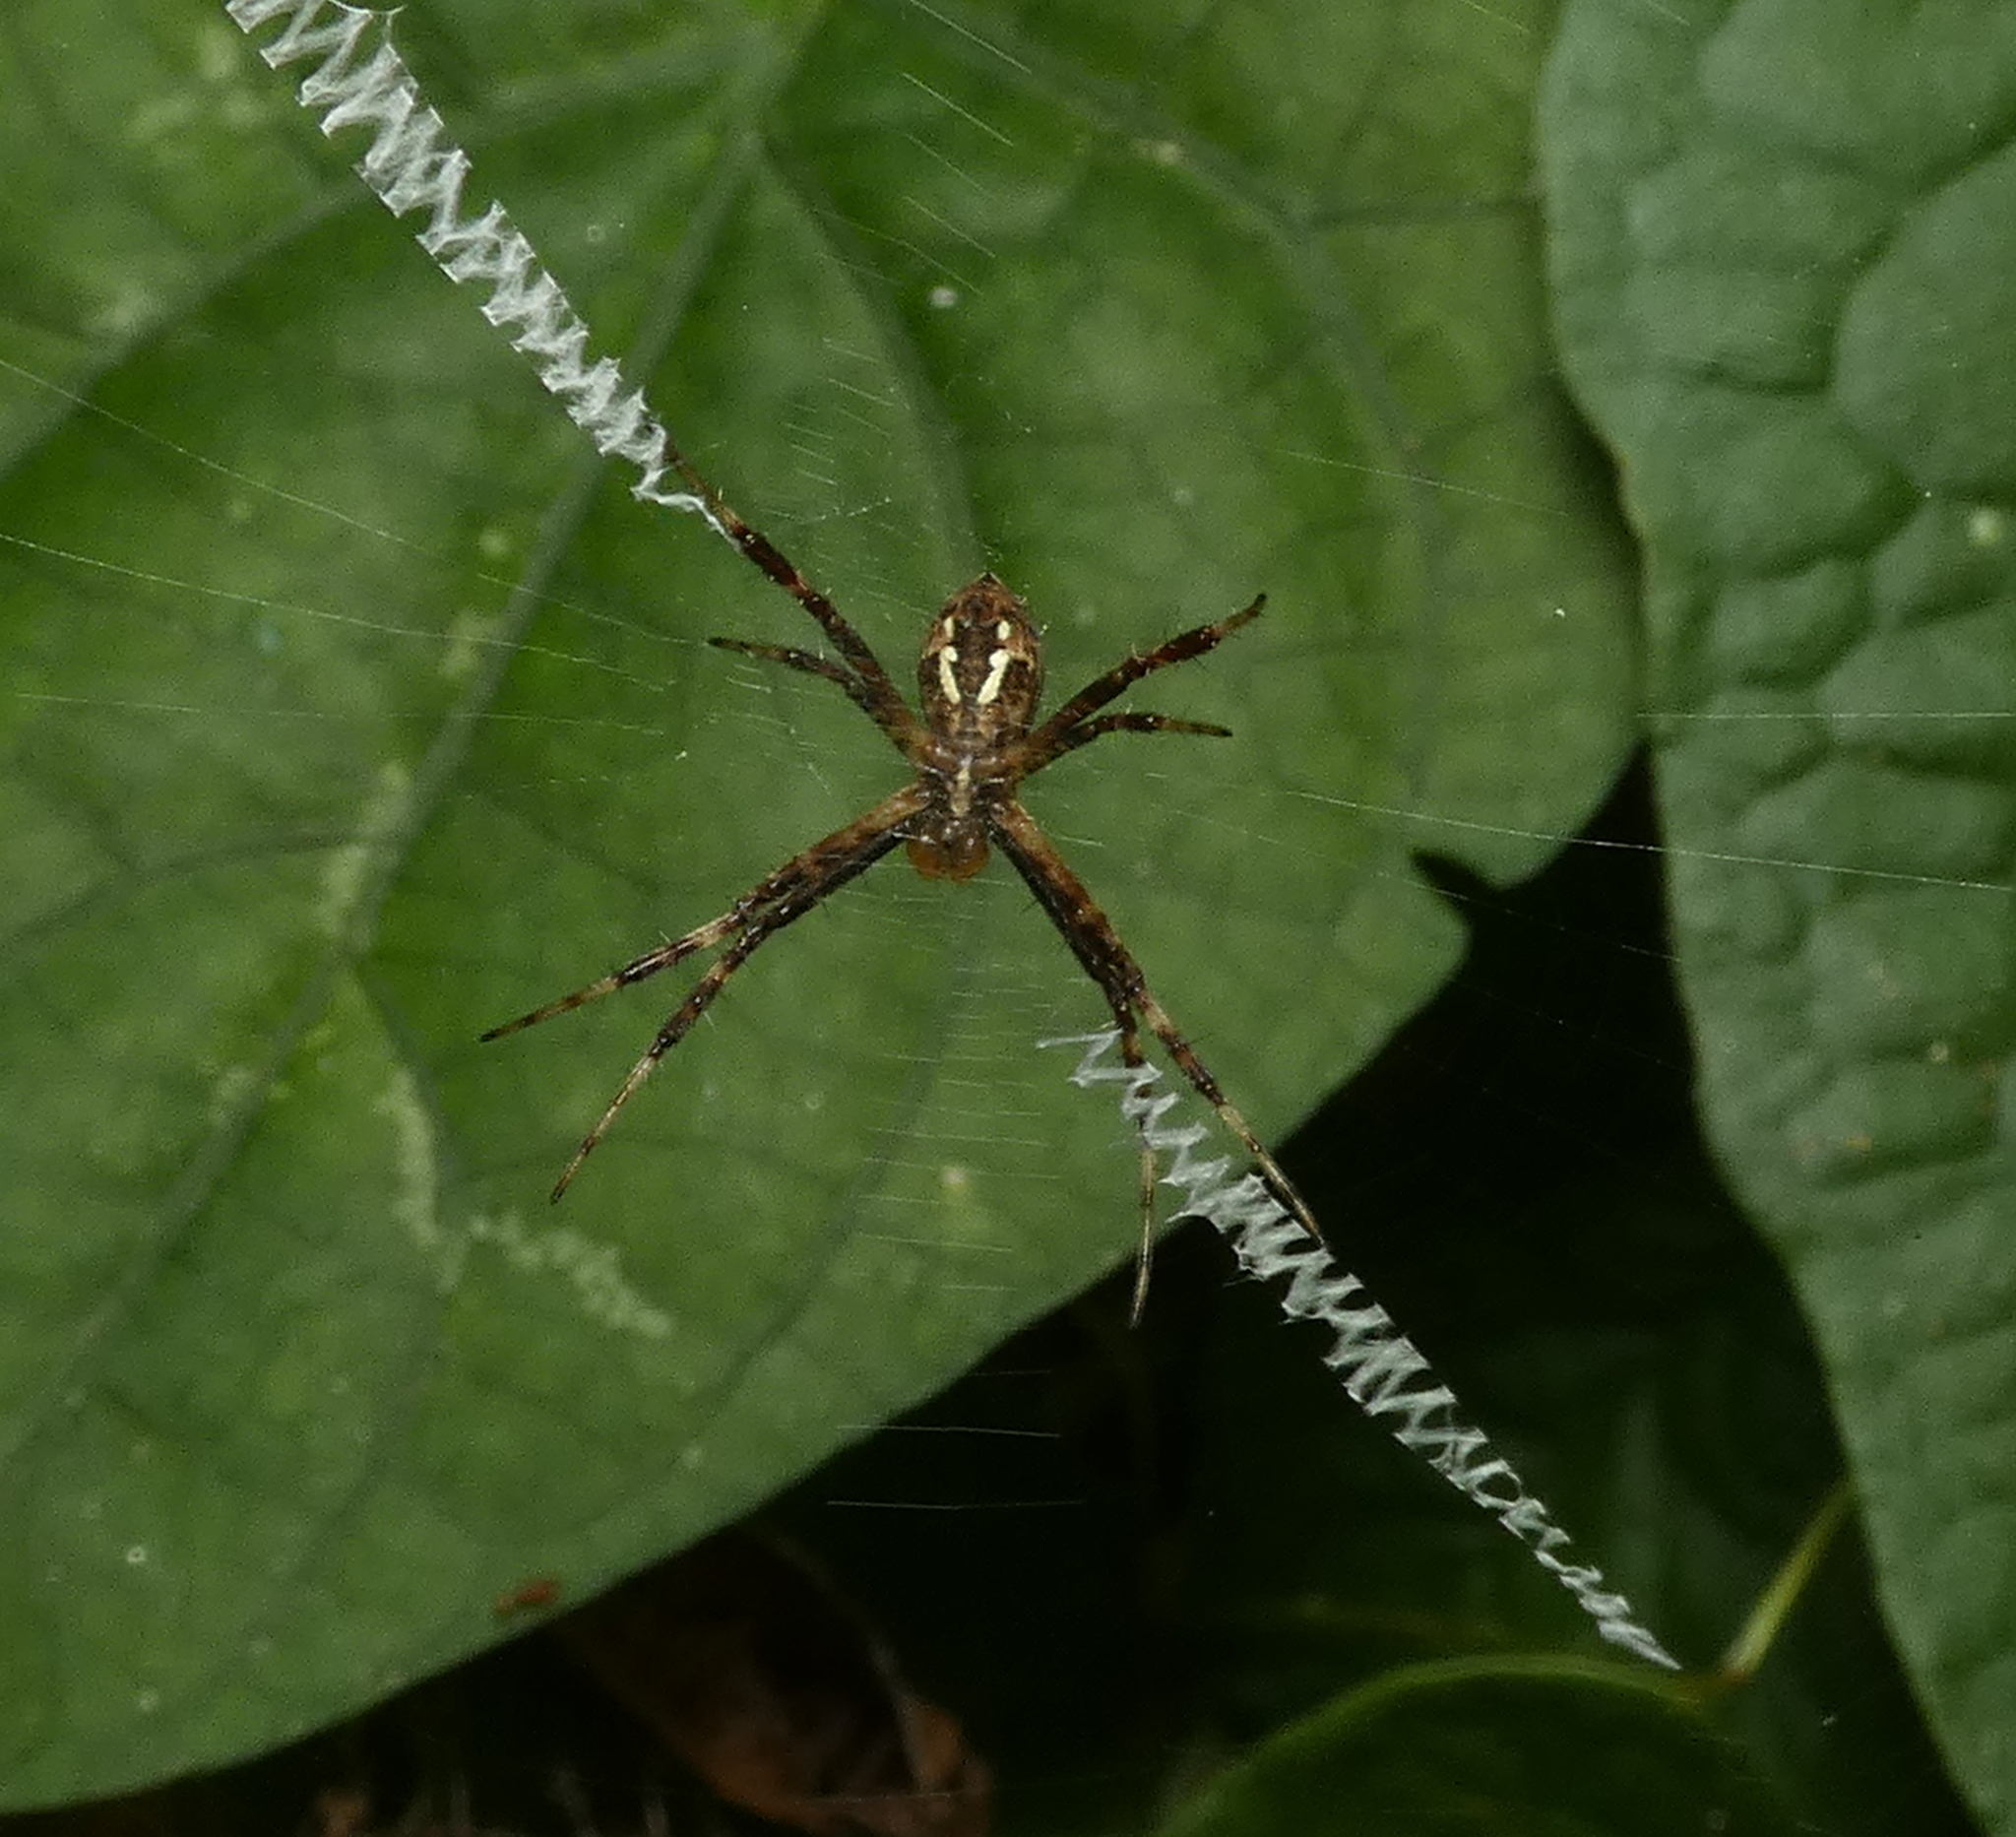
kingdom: Animalia
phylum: Arthropoda
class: Arachnida
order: Araneae
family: Araneidae
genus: Argiope
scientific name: Argiope argentata
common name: Orb weavers
